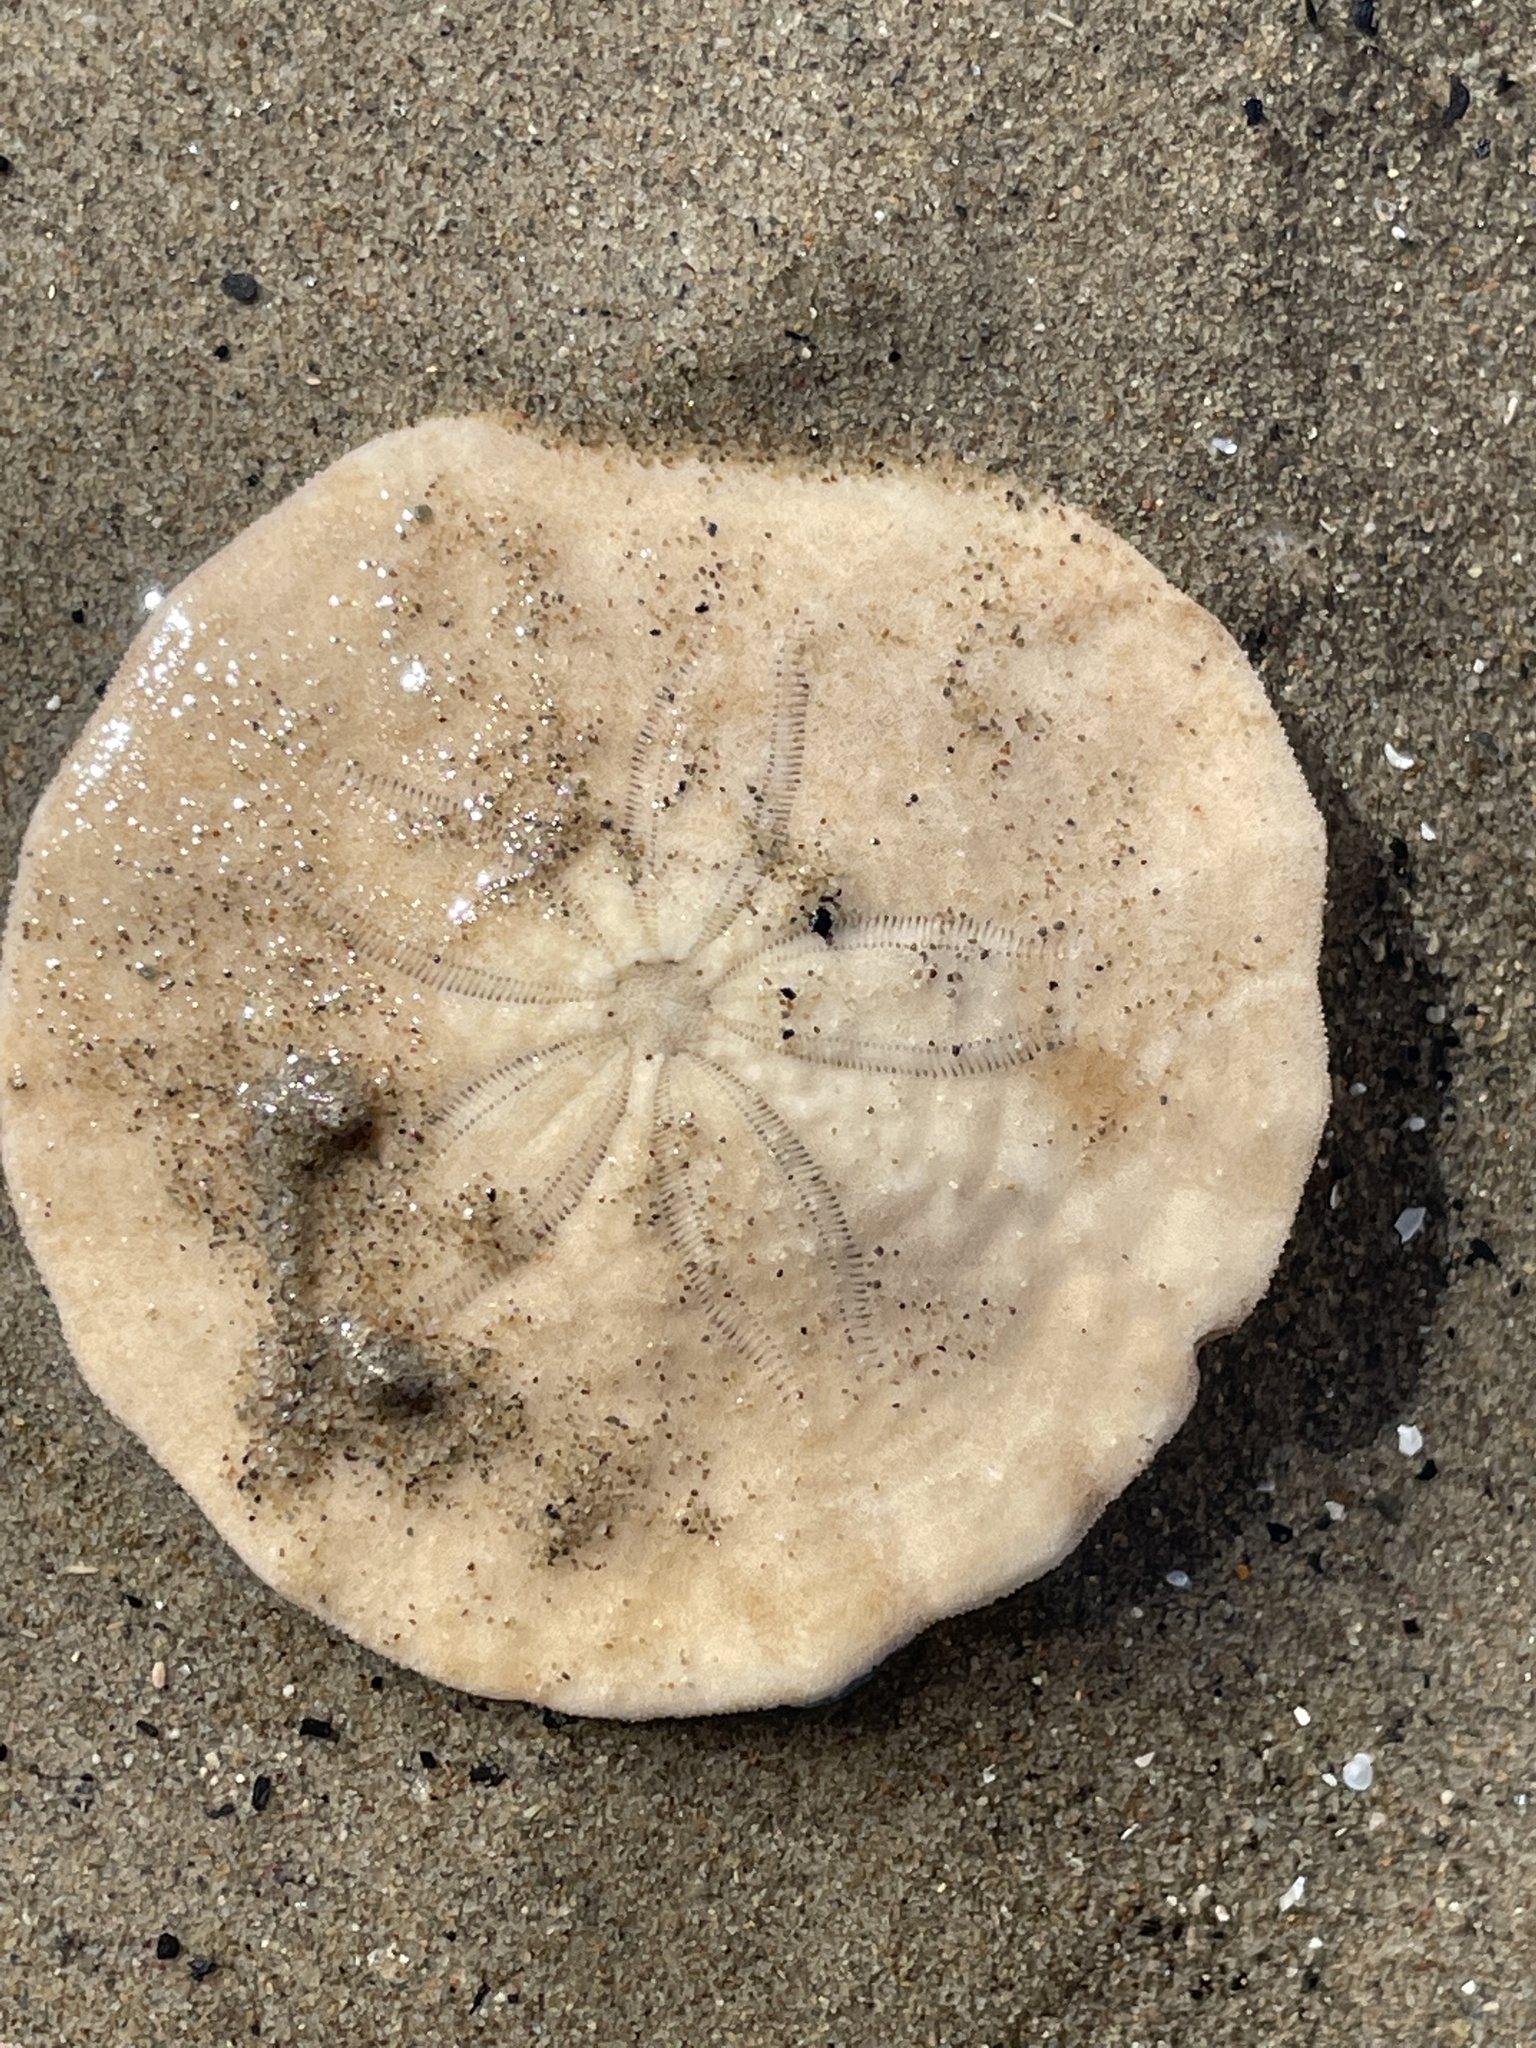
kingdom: Animalia
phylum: Echinodermata
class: Echinoidea
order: Echinolampadacea
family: Echinarachniidae
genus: Echinarachnius
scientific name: Echinarachnius parma
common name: Common sand dollar
